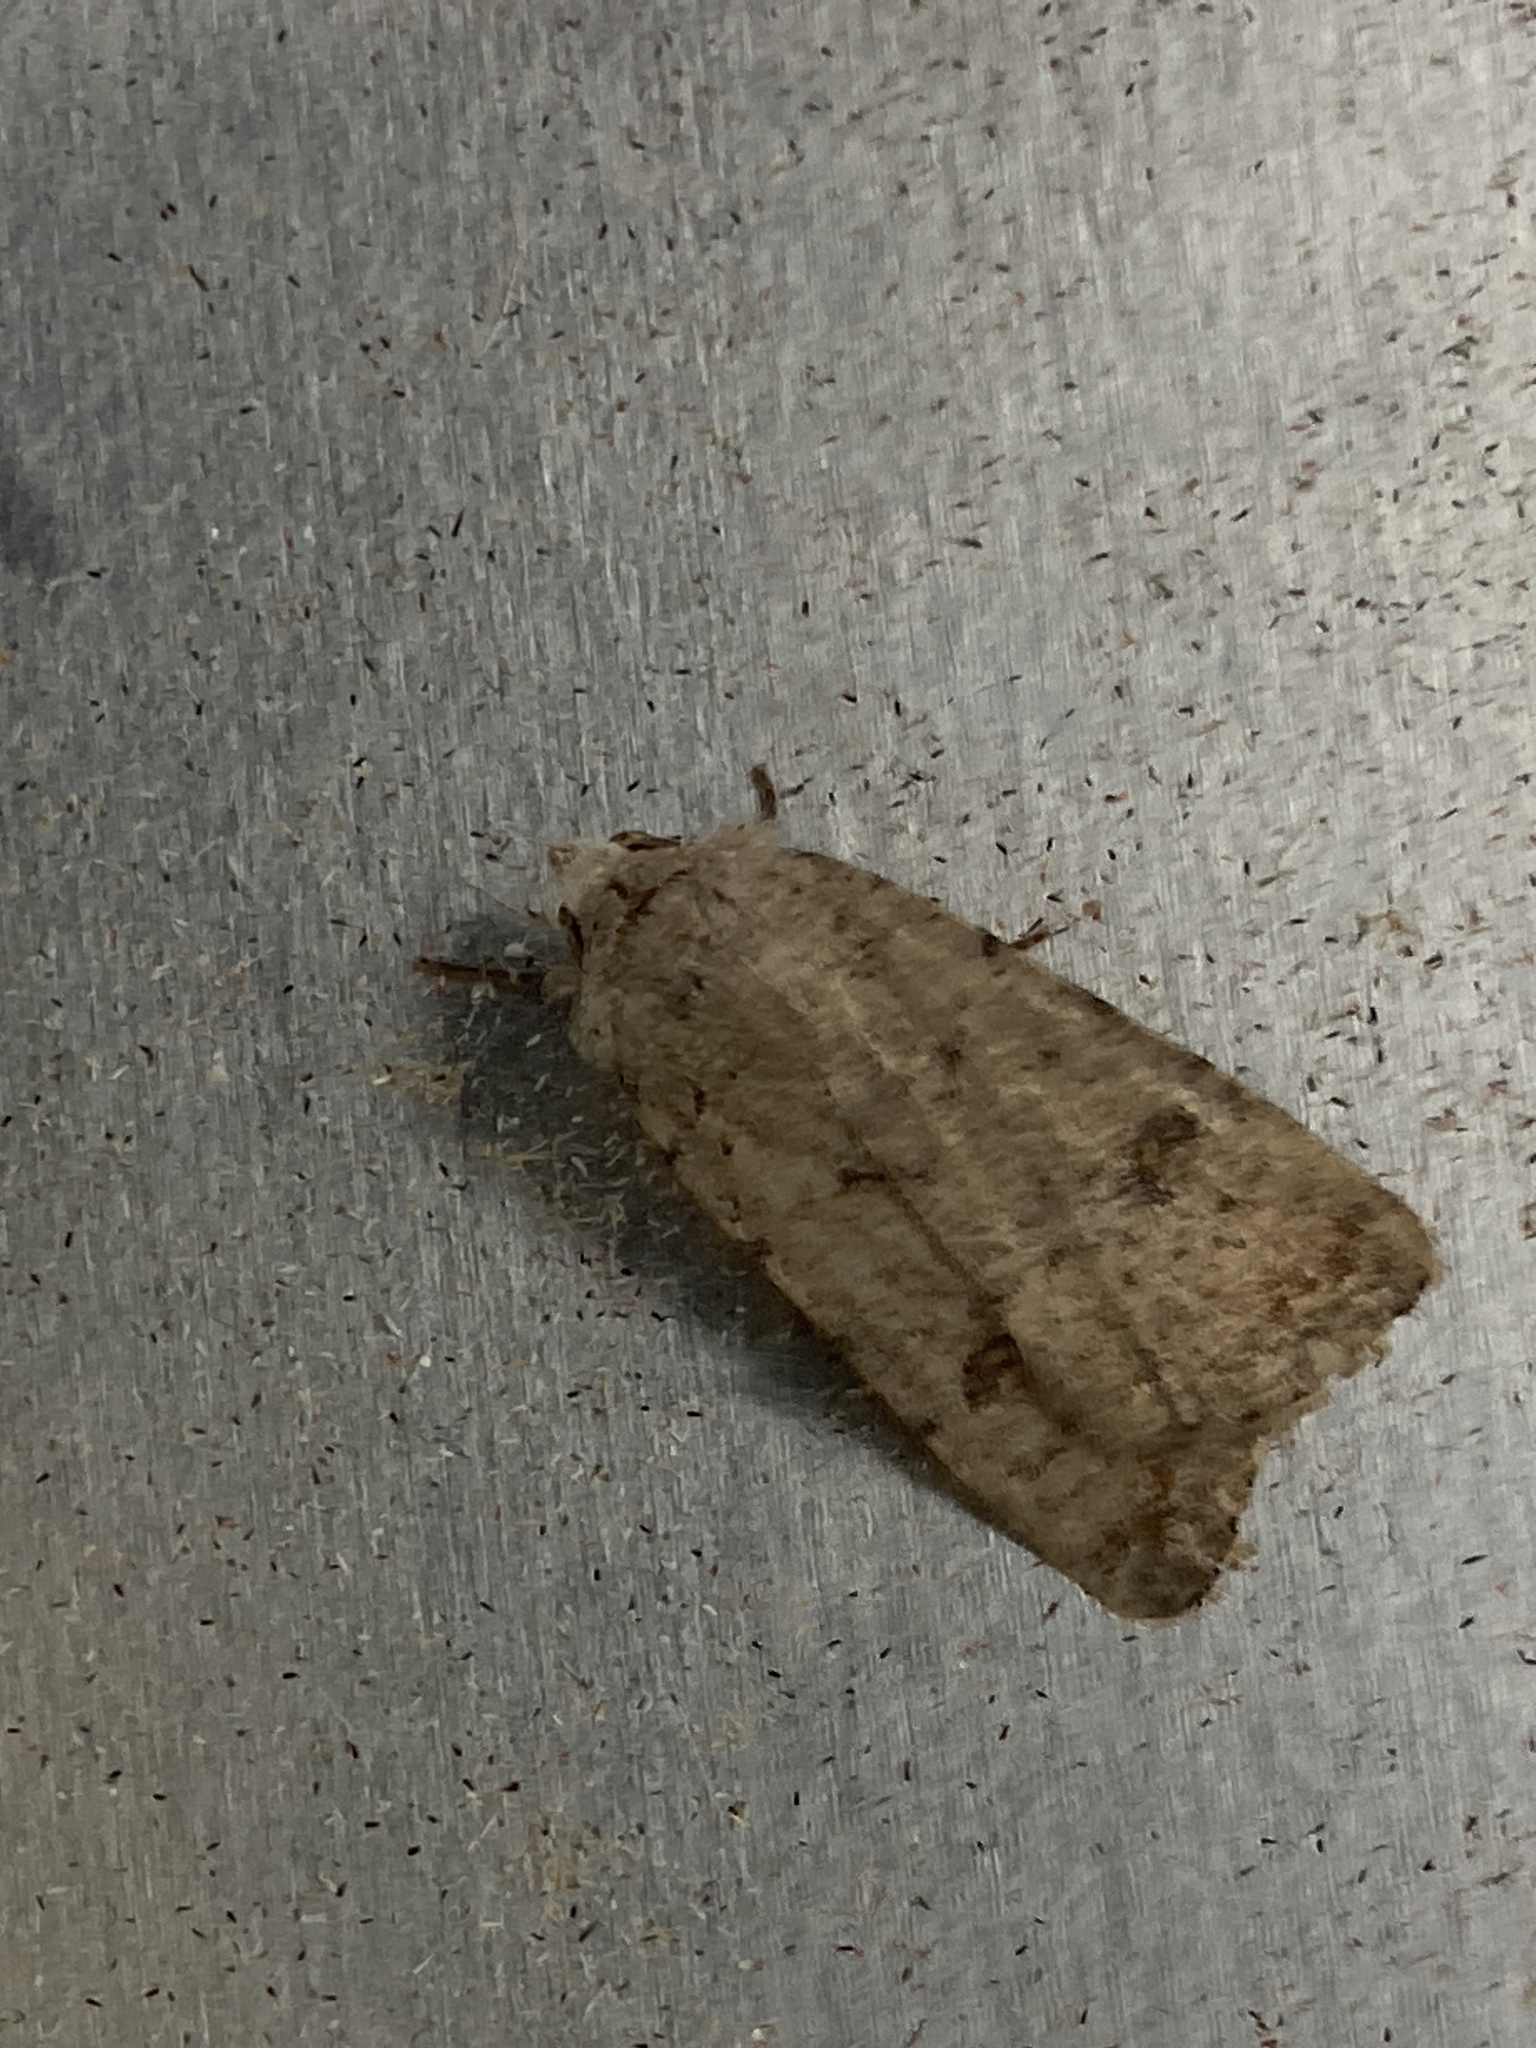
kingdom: Animalia
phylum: Arthropoda
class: Insecta
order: Lepidoptera
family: Noctuidae
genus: Caradrina
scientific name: Caradrina clavipalpis
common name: Pale mottled willow
